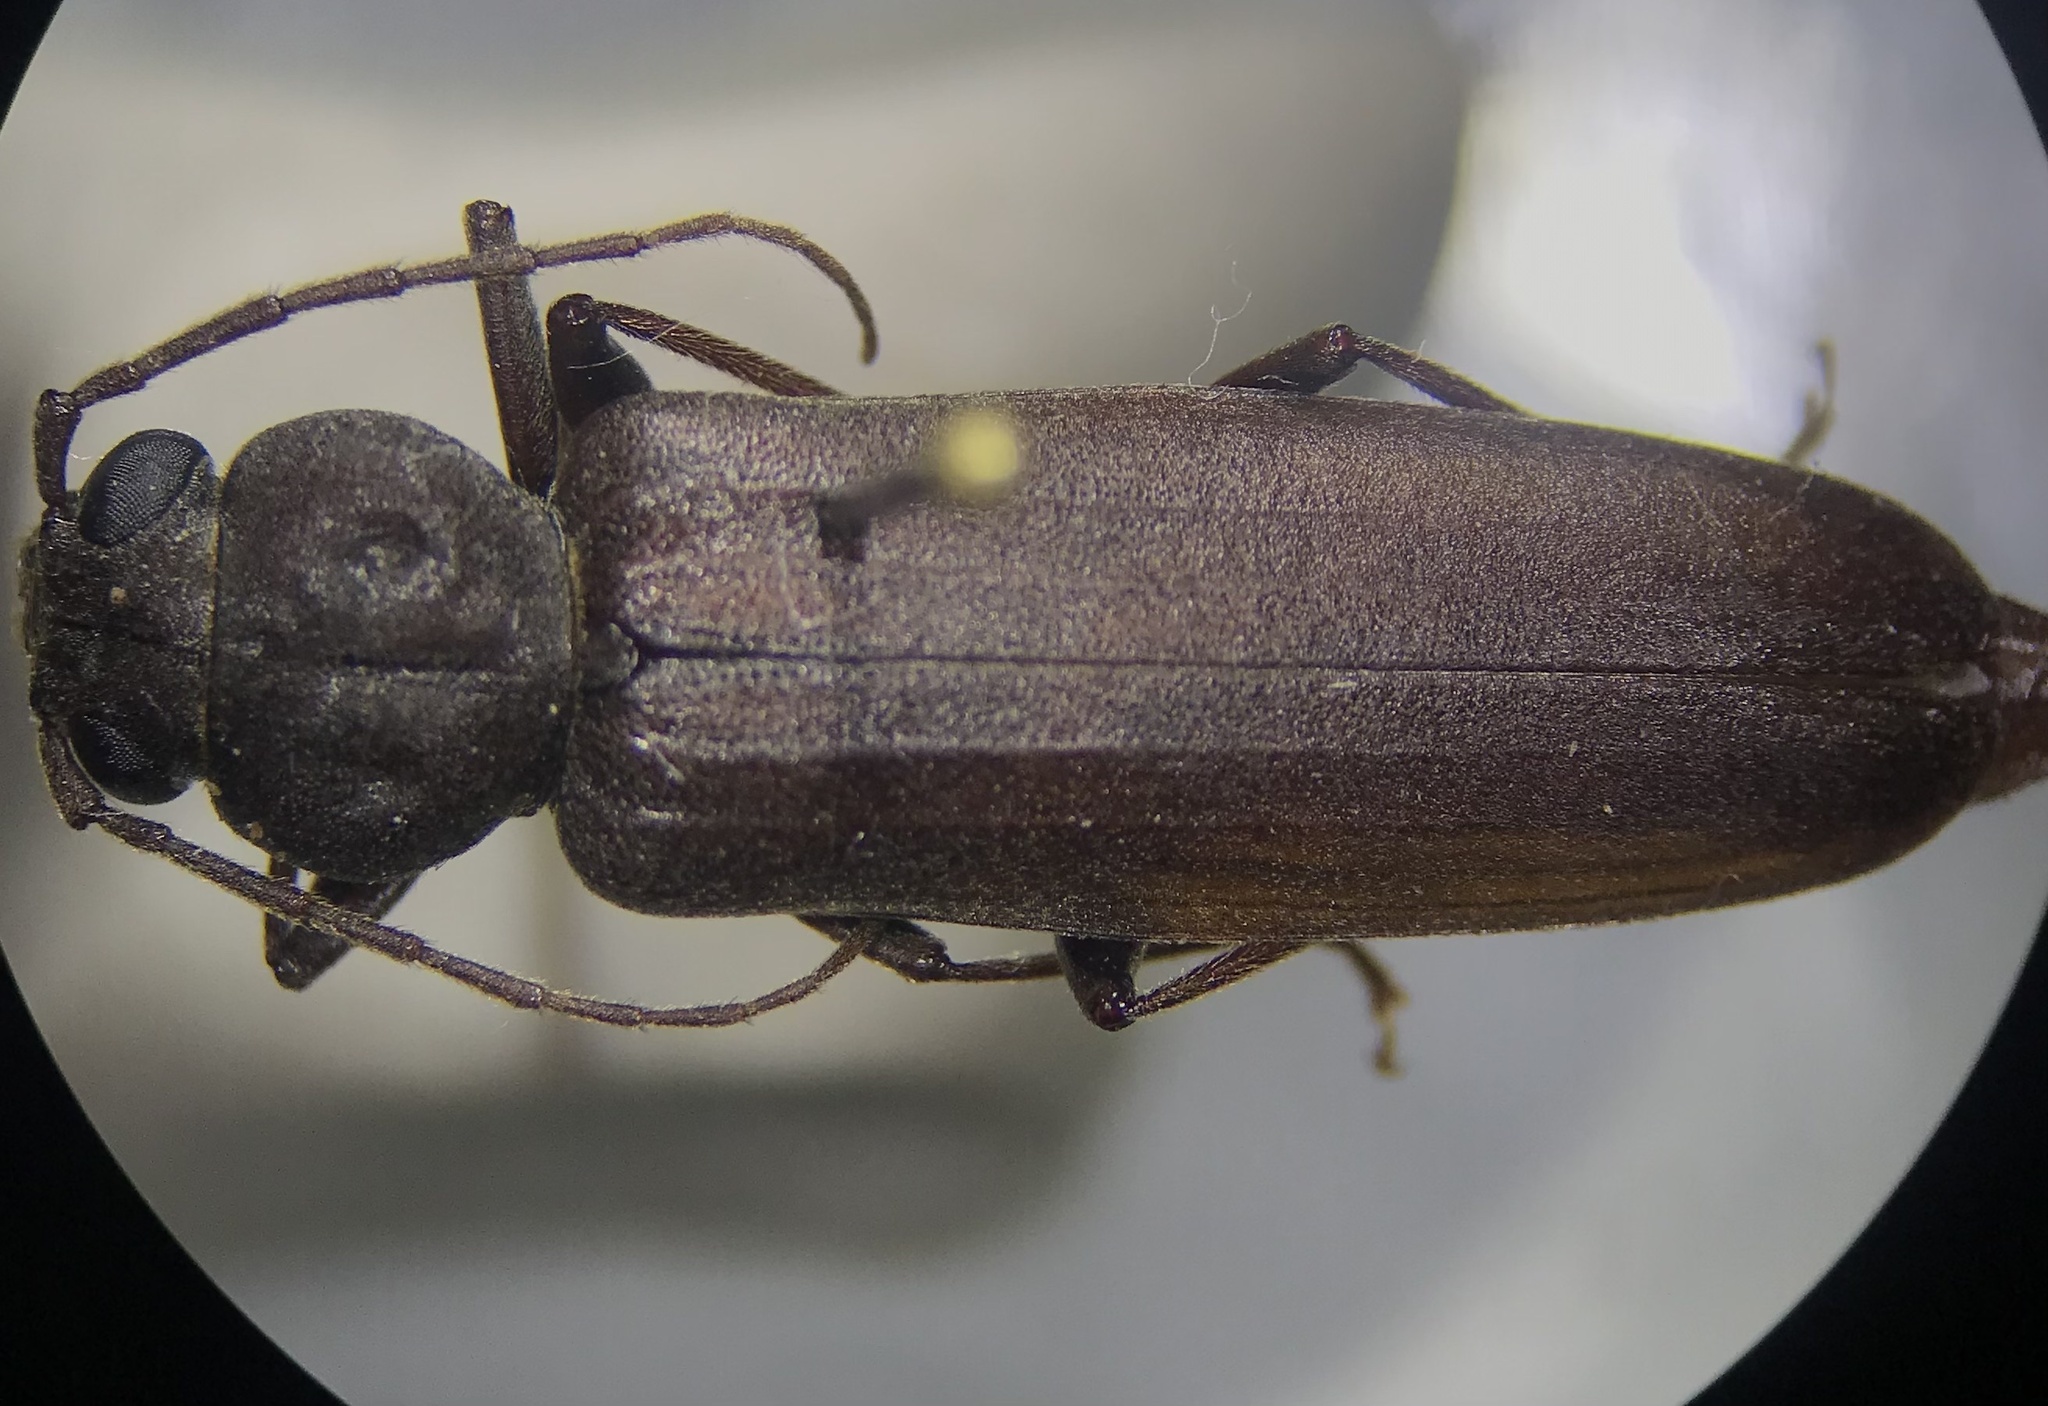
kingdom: Animalia
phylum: Arthropoda
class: Insecta
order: Coleoptera
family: Cerambycidae
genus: Arhopalus
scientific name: Arhopalus rusticus
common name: Rust pine borer
